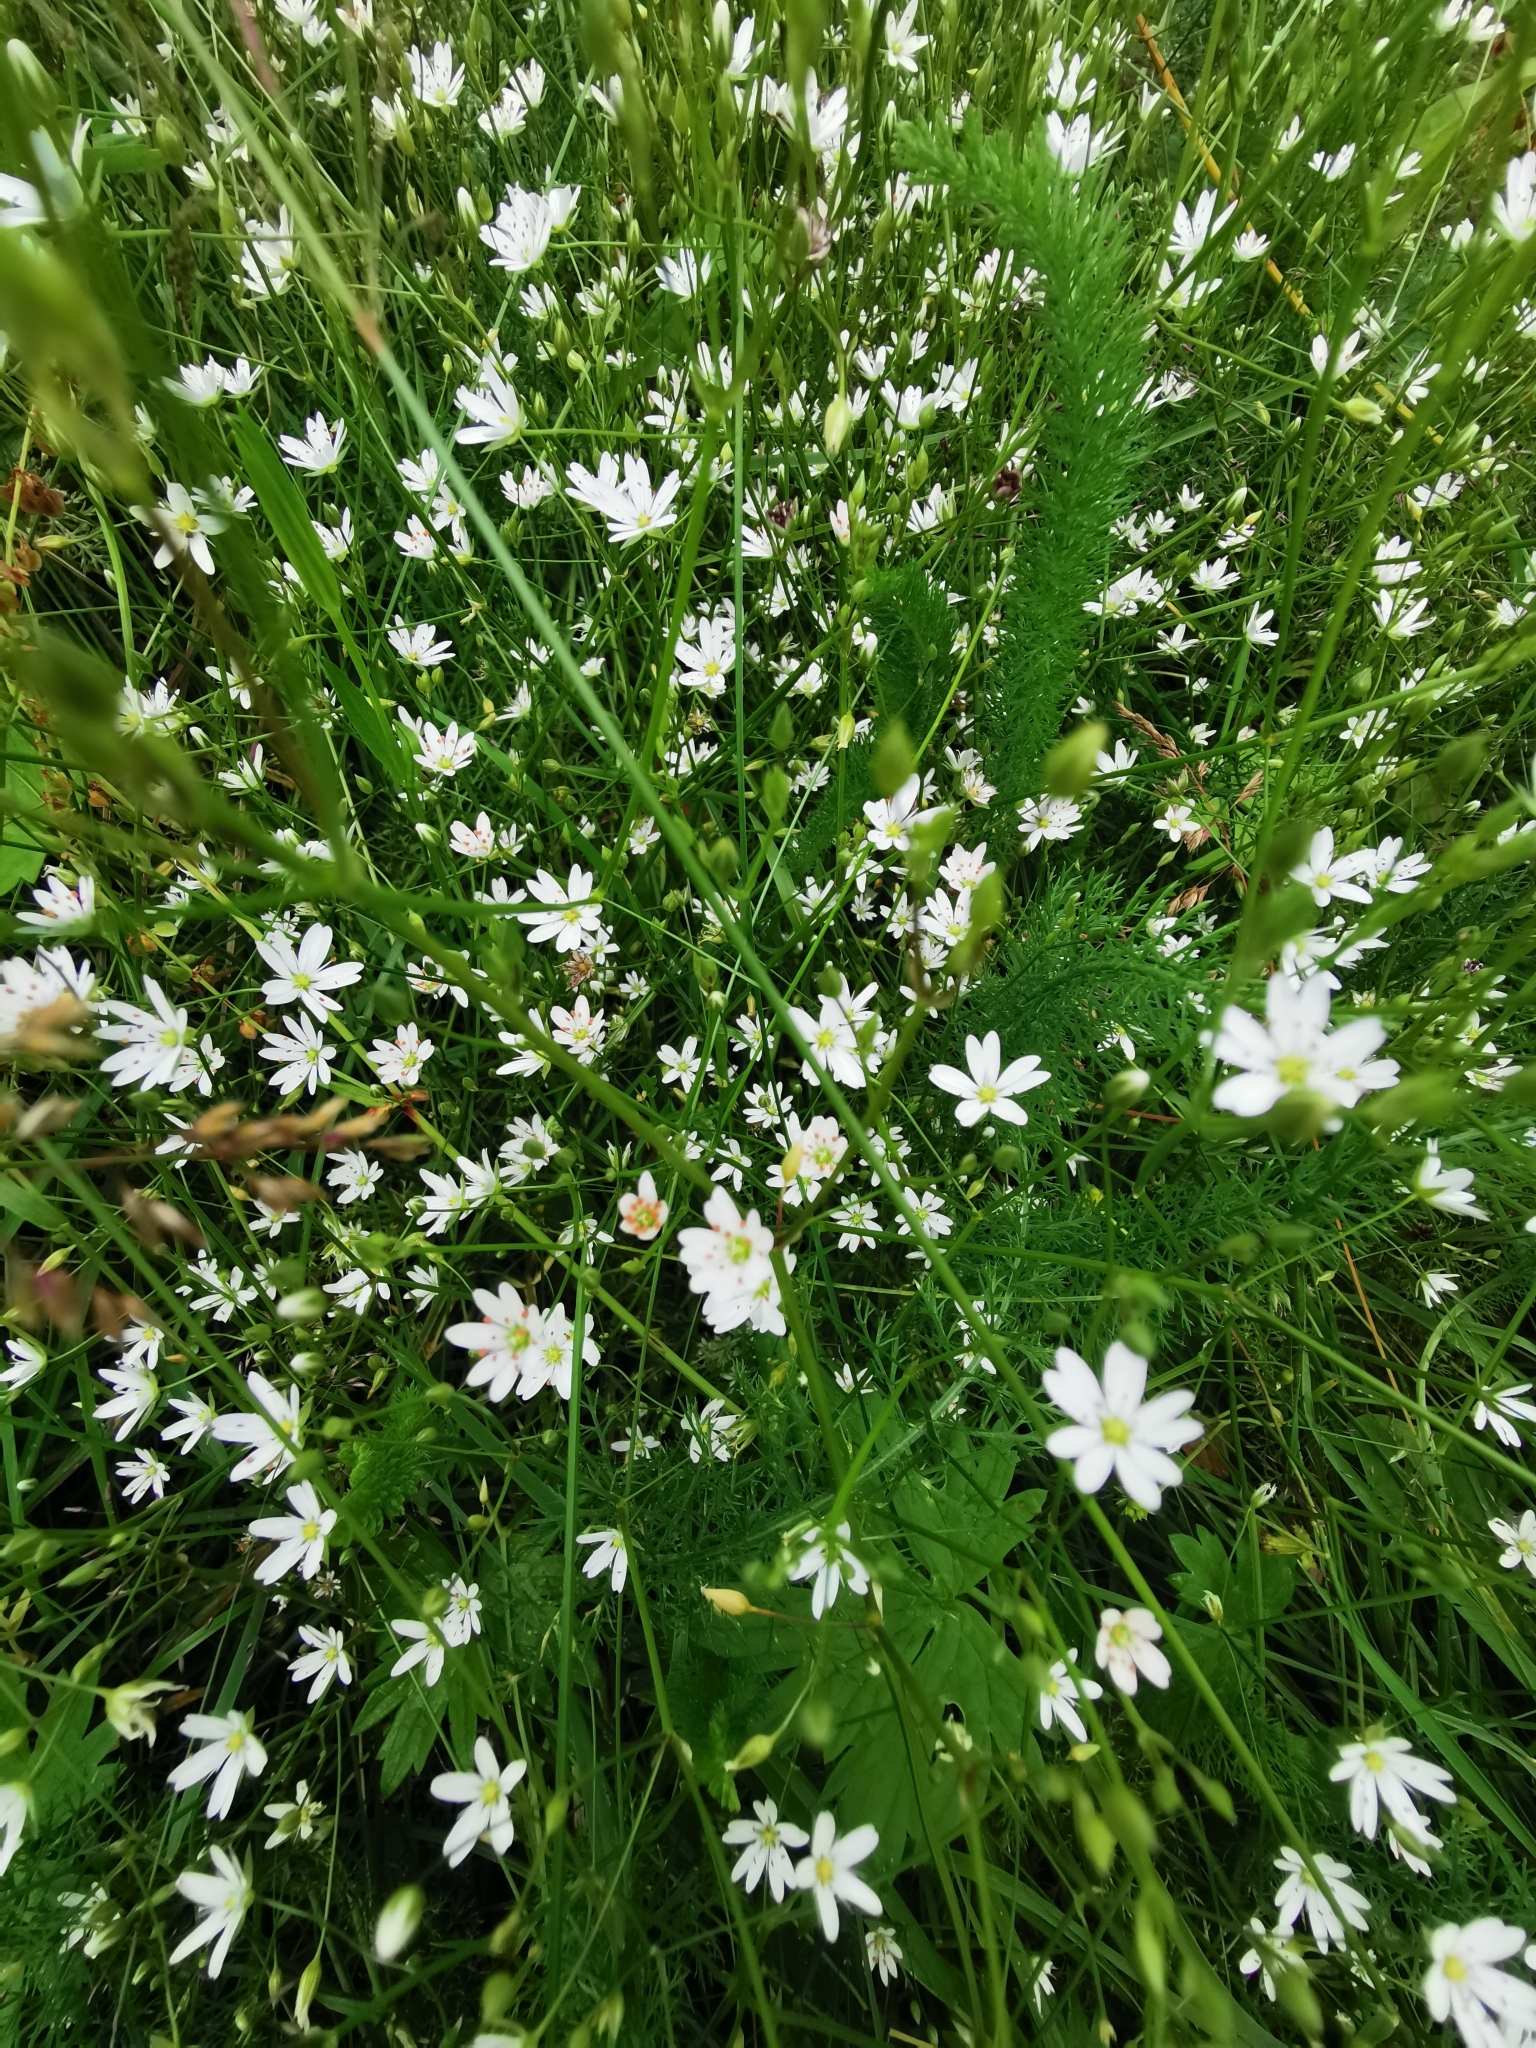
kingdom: Plantae
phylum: Tracheophyta
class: Magnoliopsida
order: Caryophyllales
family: Caryophyllaceae
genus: Stellaria
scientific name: Stellaria graminea
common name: Grass-like starwort
